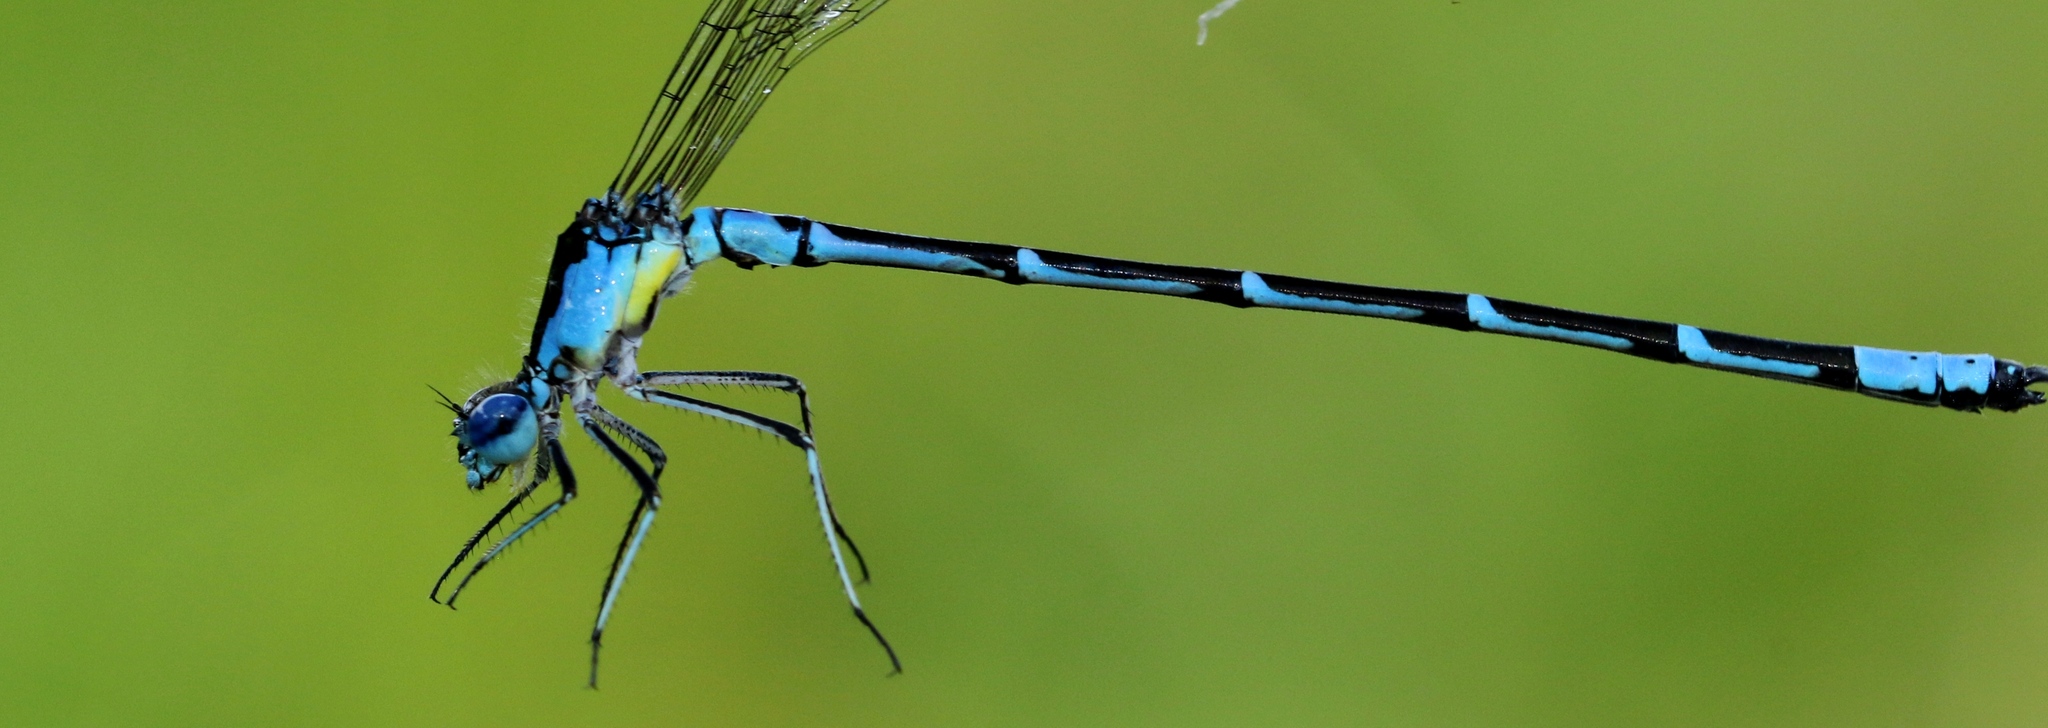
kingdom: Animalia
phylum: Arthropoda
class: Insecta
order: Odonata
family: Coenagrionidae
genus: Chromagrion
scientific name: Chromagrion conditum
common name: Aurora damsel
